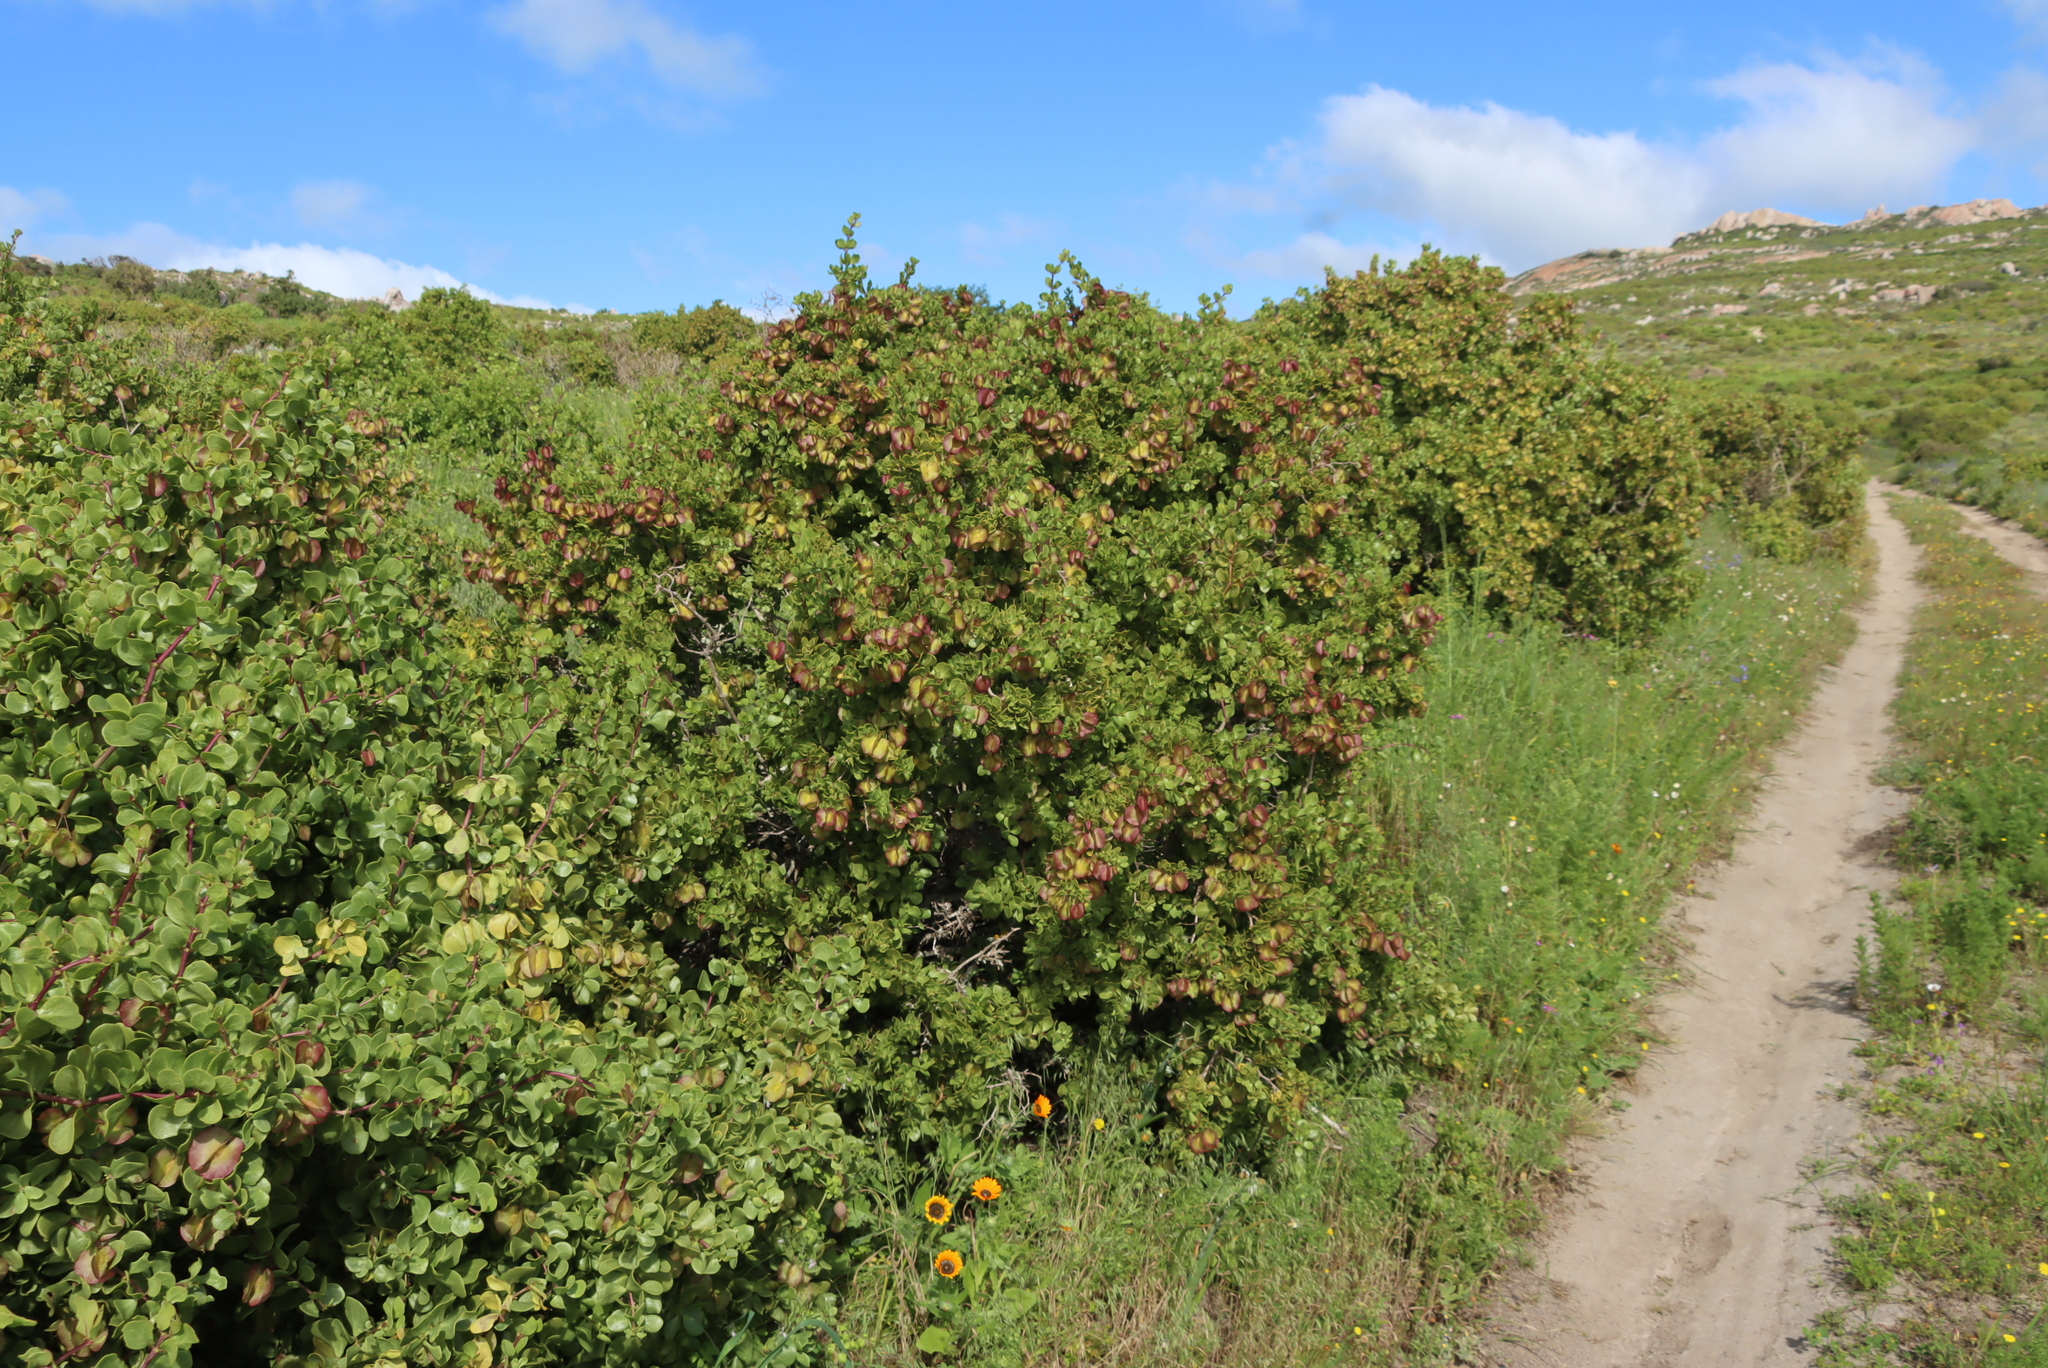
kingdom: Plantae
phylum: Tracheophyta
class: Magnoliopsida
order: Zygophyllales
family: Zygophyllaceae
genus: Roepera
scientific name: Roepera morgsana
